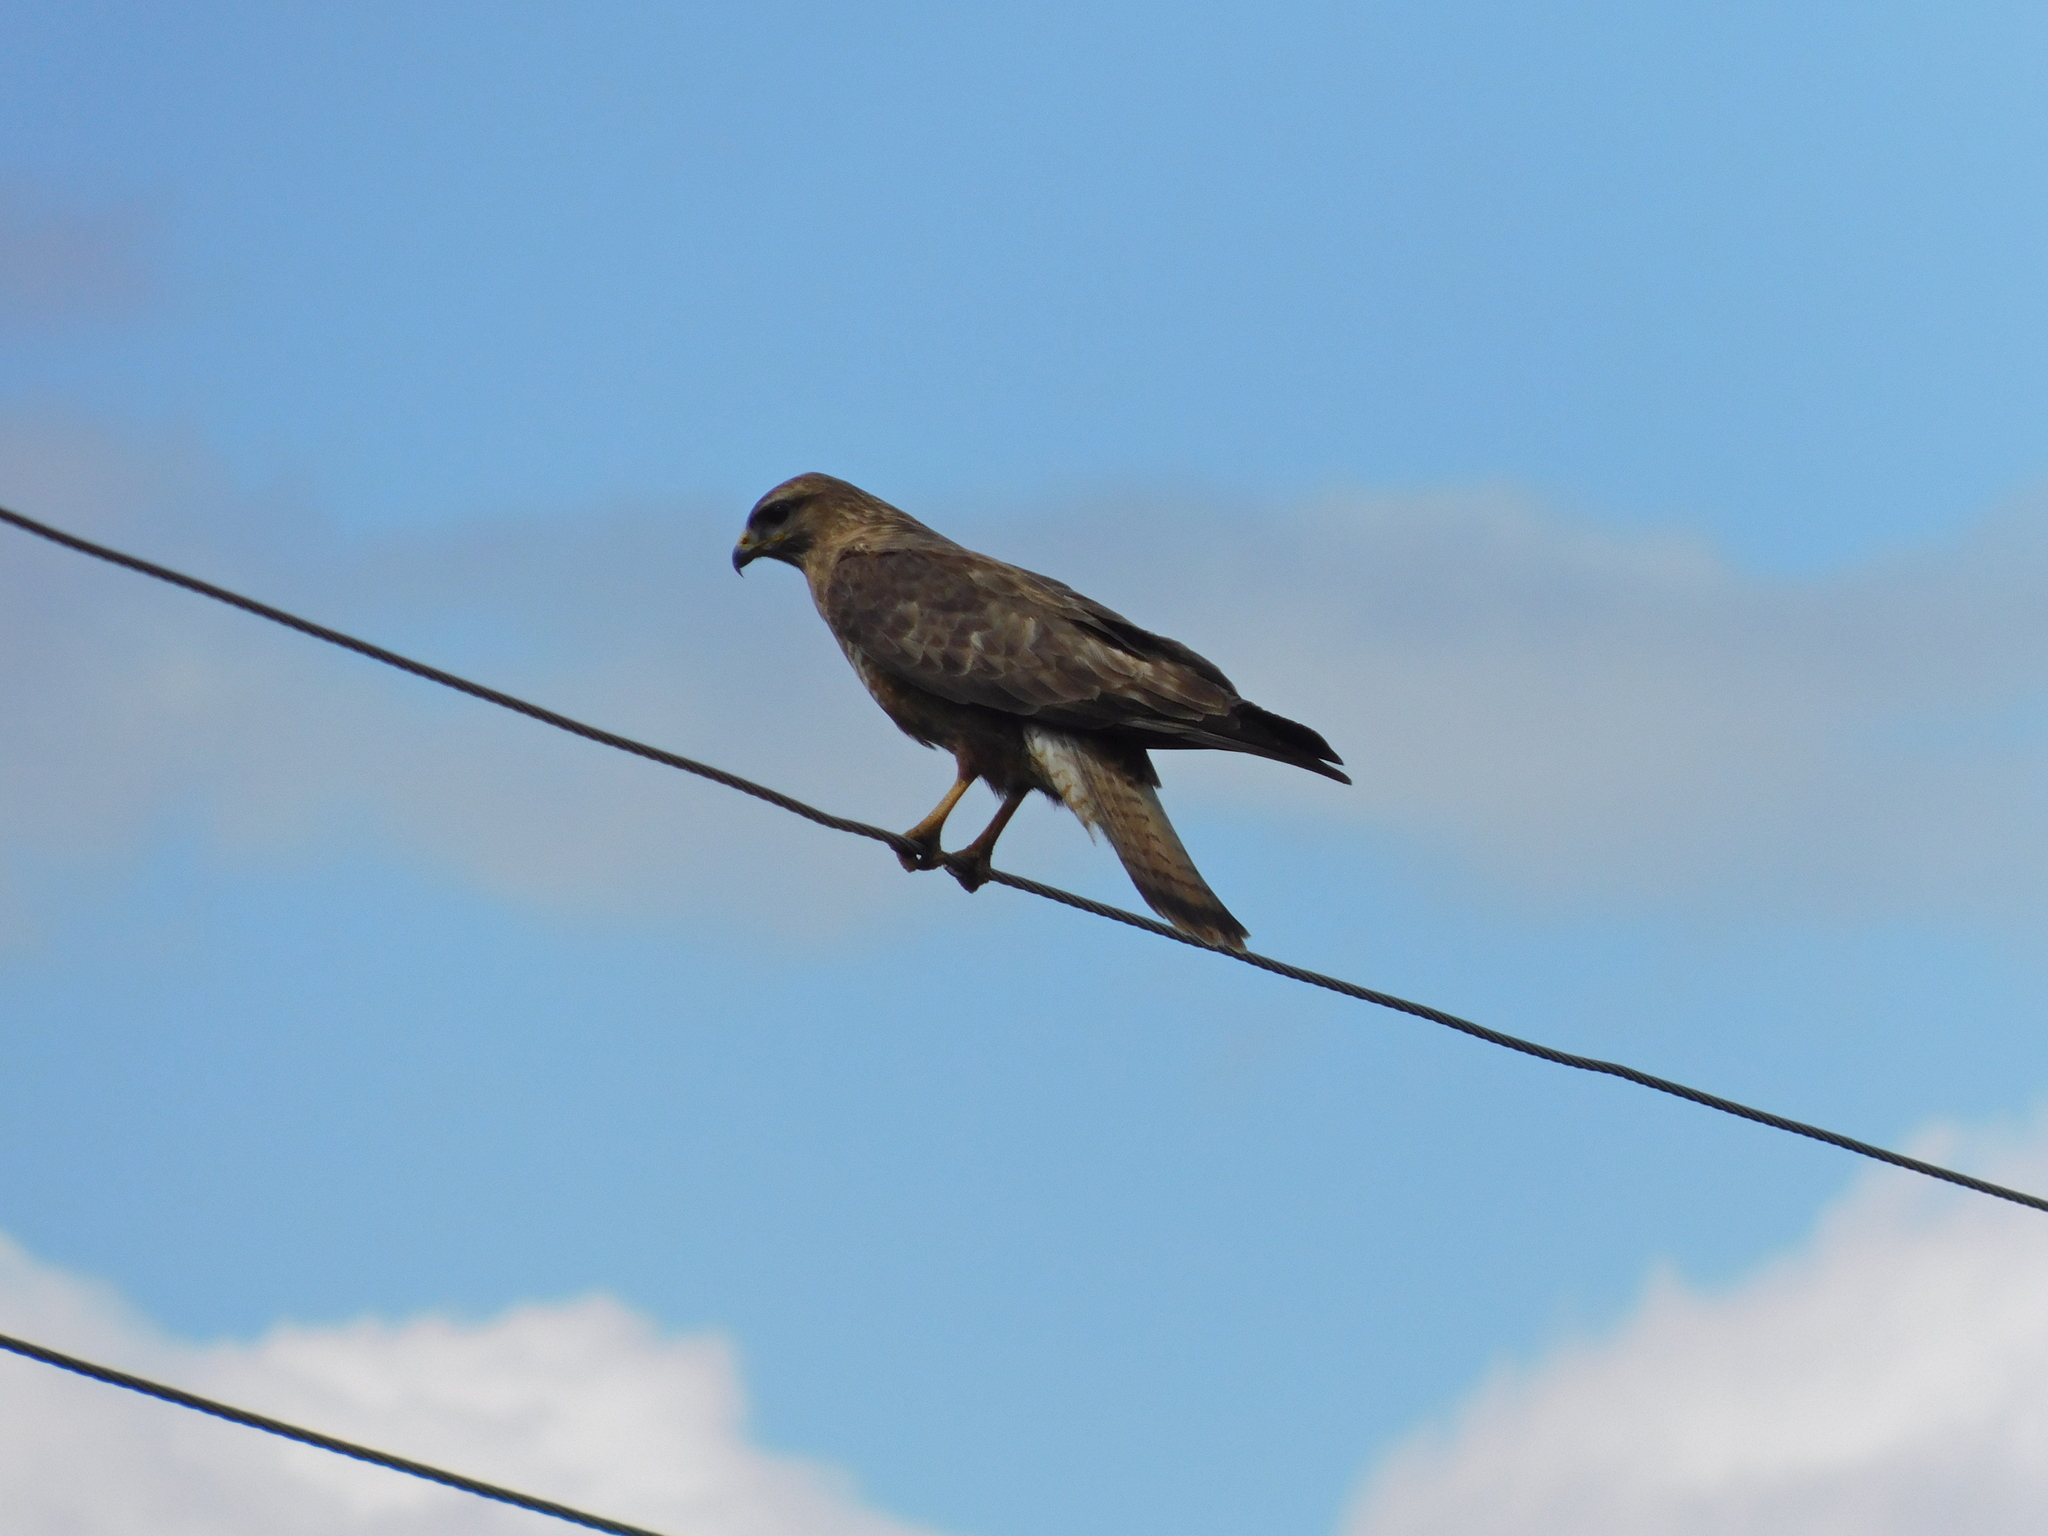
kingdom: Animalia
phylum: Chordata
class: Aves
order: Accipitriformes
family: Accipitridae
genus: Buteo
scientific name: Buteo buteo
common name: Common buzzard
